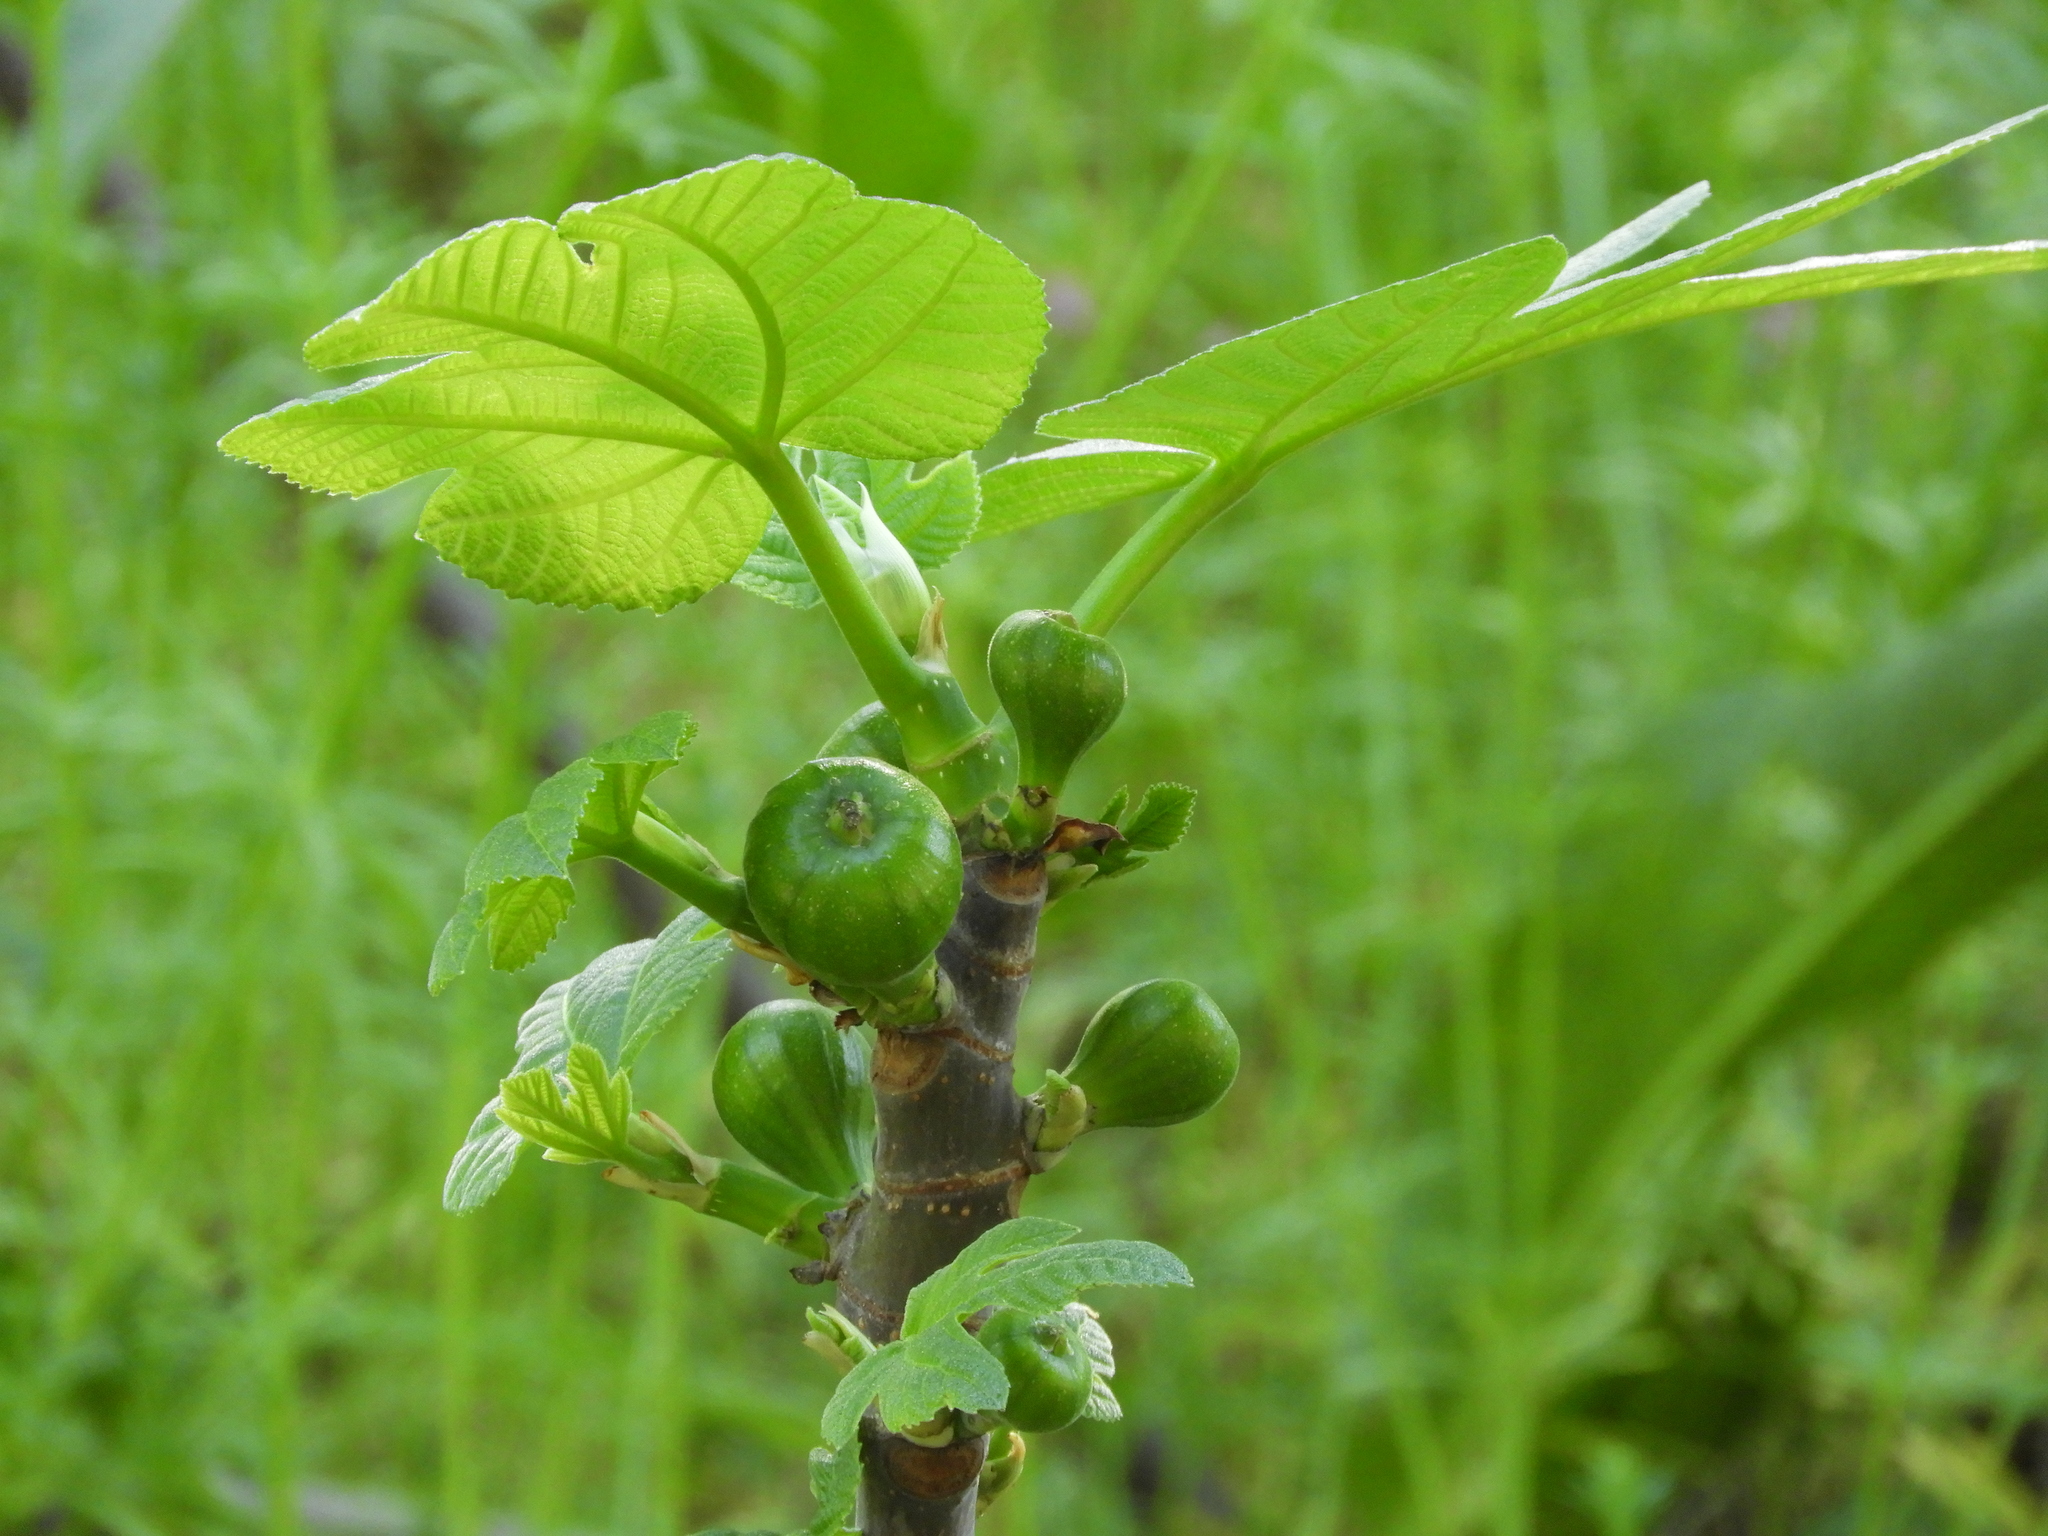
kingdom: Plantae
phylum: Tracheophyta
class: Magnoliopsida
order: Rosales
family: Moraceae
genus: Ficus
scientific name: Ficus carica
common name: Fig
